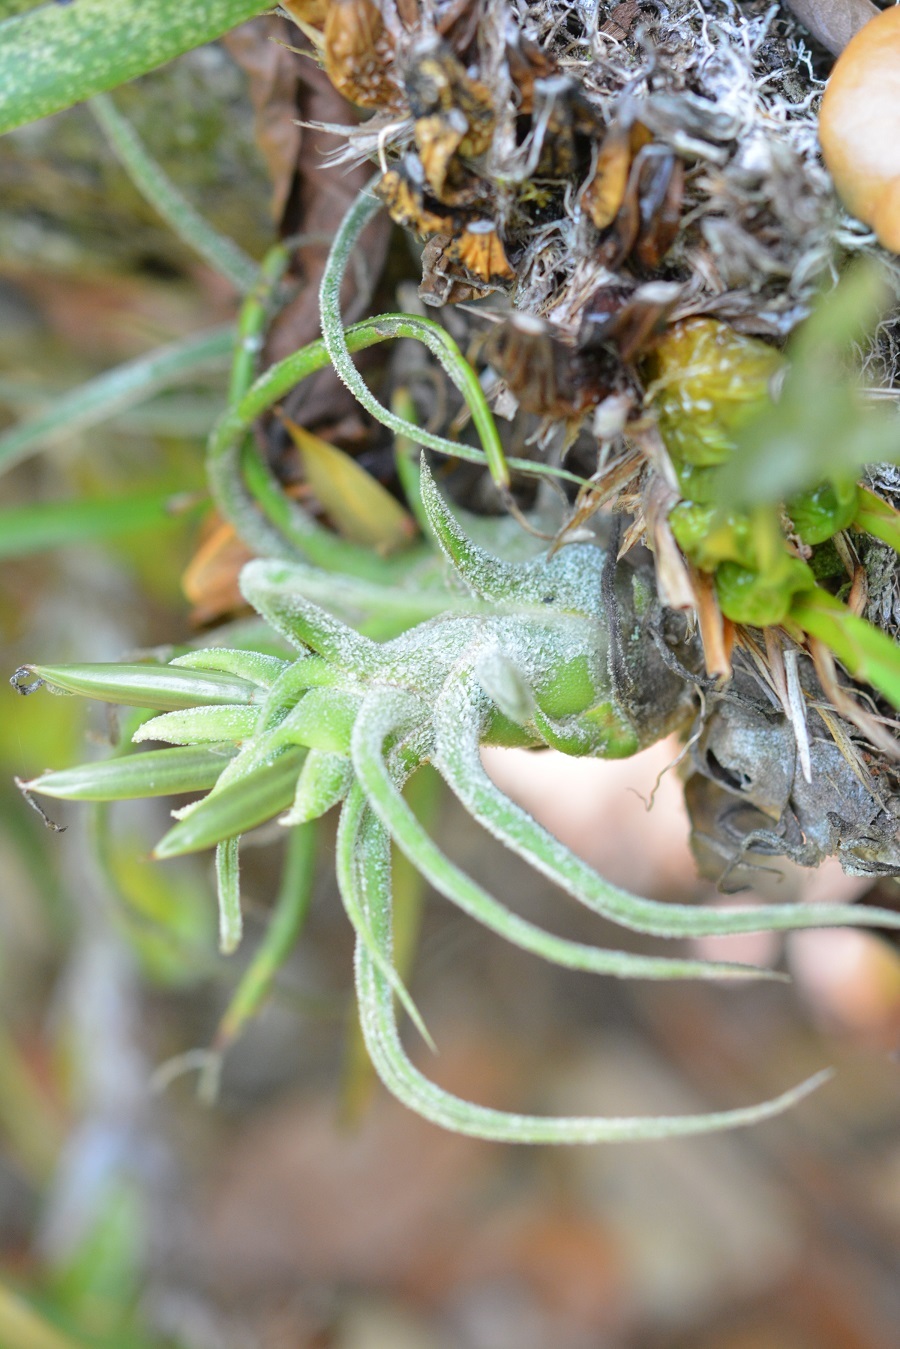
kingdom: Plantae
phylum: Tracheophyta
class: Liliopsida
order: Poales
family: Bromeliaceae
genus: Tillandsia
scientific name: Tillandsia pruinosa
